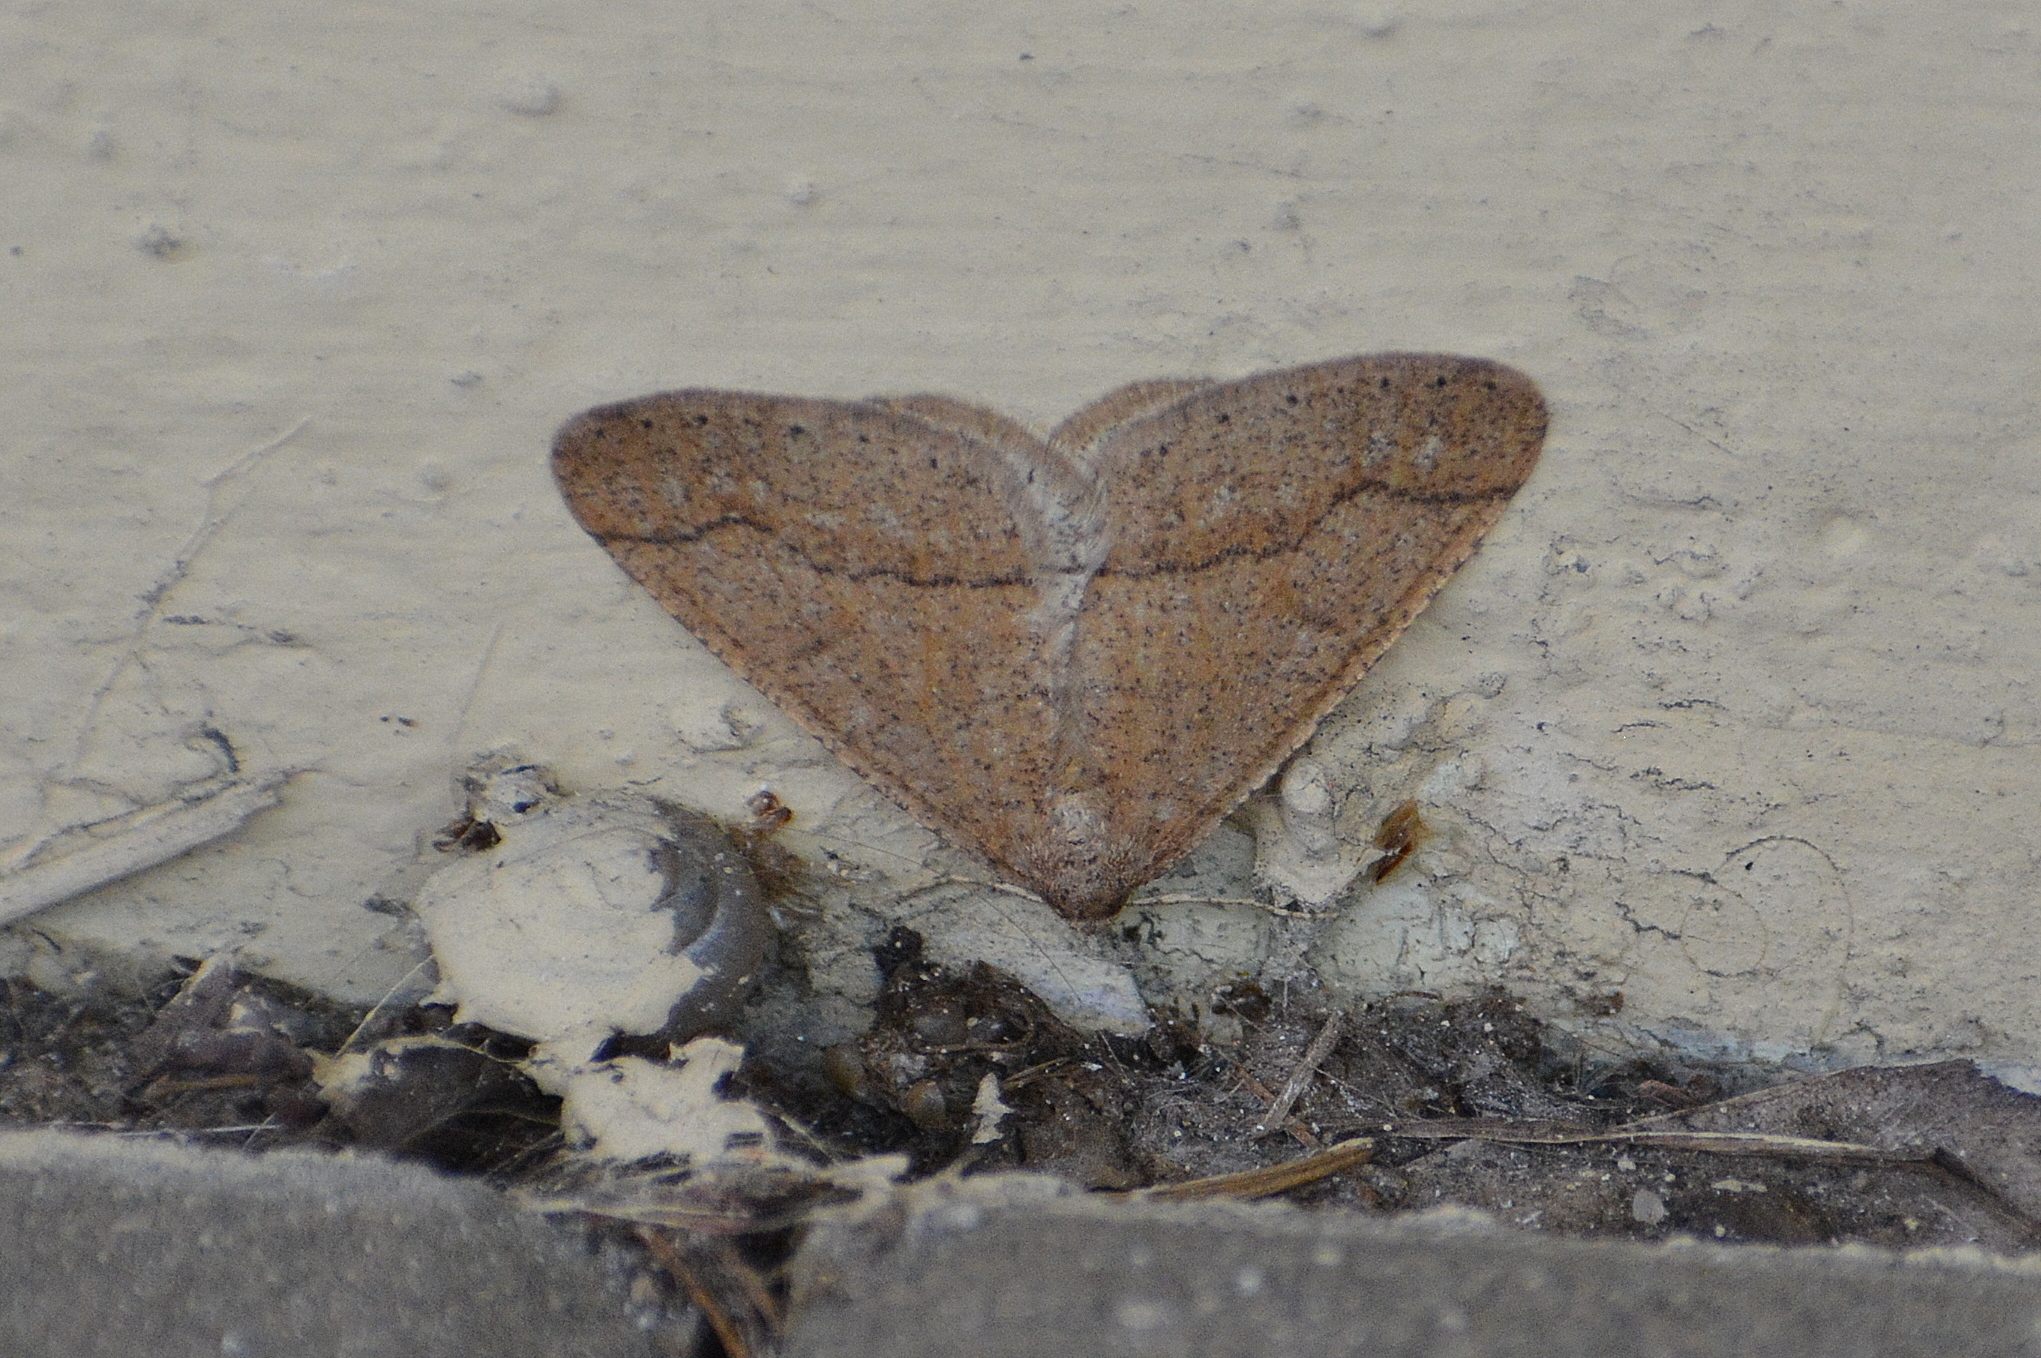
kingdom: Animalia
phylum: Arthropoda
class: Insecta
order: Lepidoptera
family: Geometridae
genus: Agriopis
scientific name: Agriopis marginaria
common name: Dotted border
